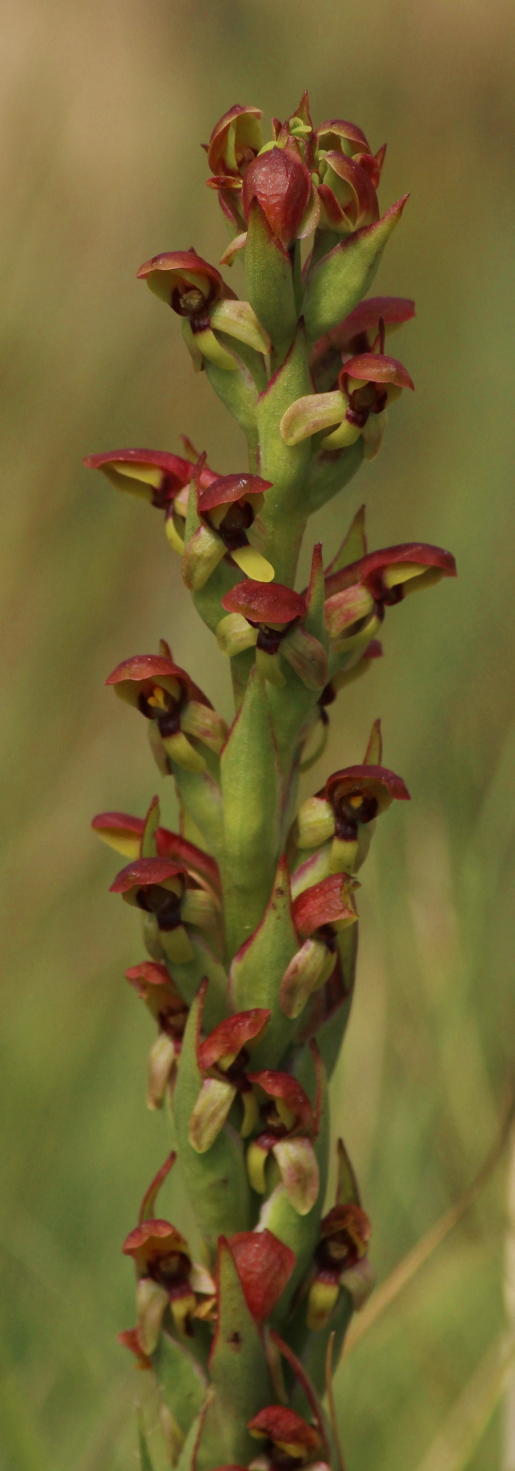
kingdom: Plantae
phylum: Tracheophyta
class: Liliopsida
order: Asparagales
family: Orchidaceae
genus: Disa
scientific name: Disa brevicornis
